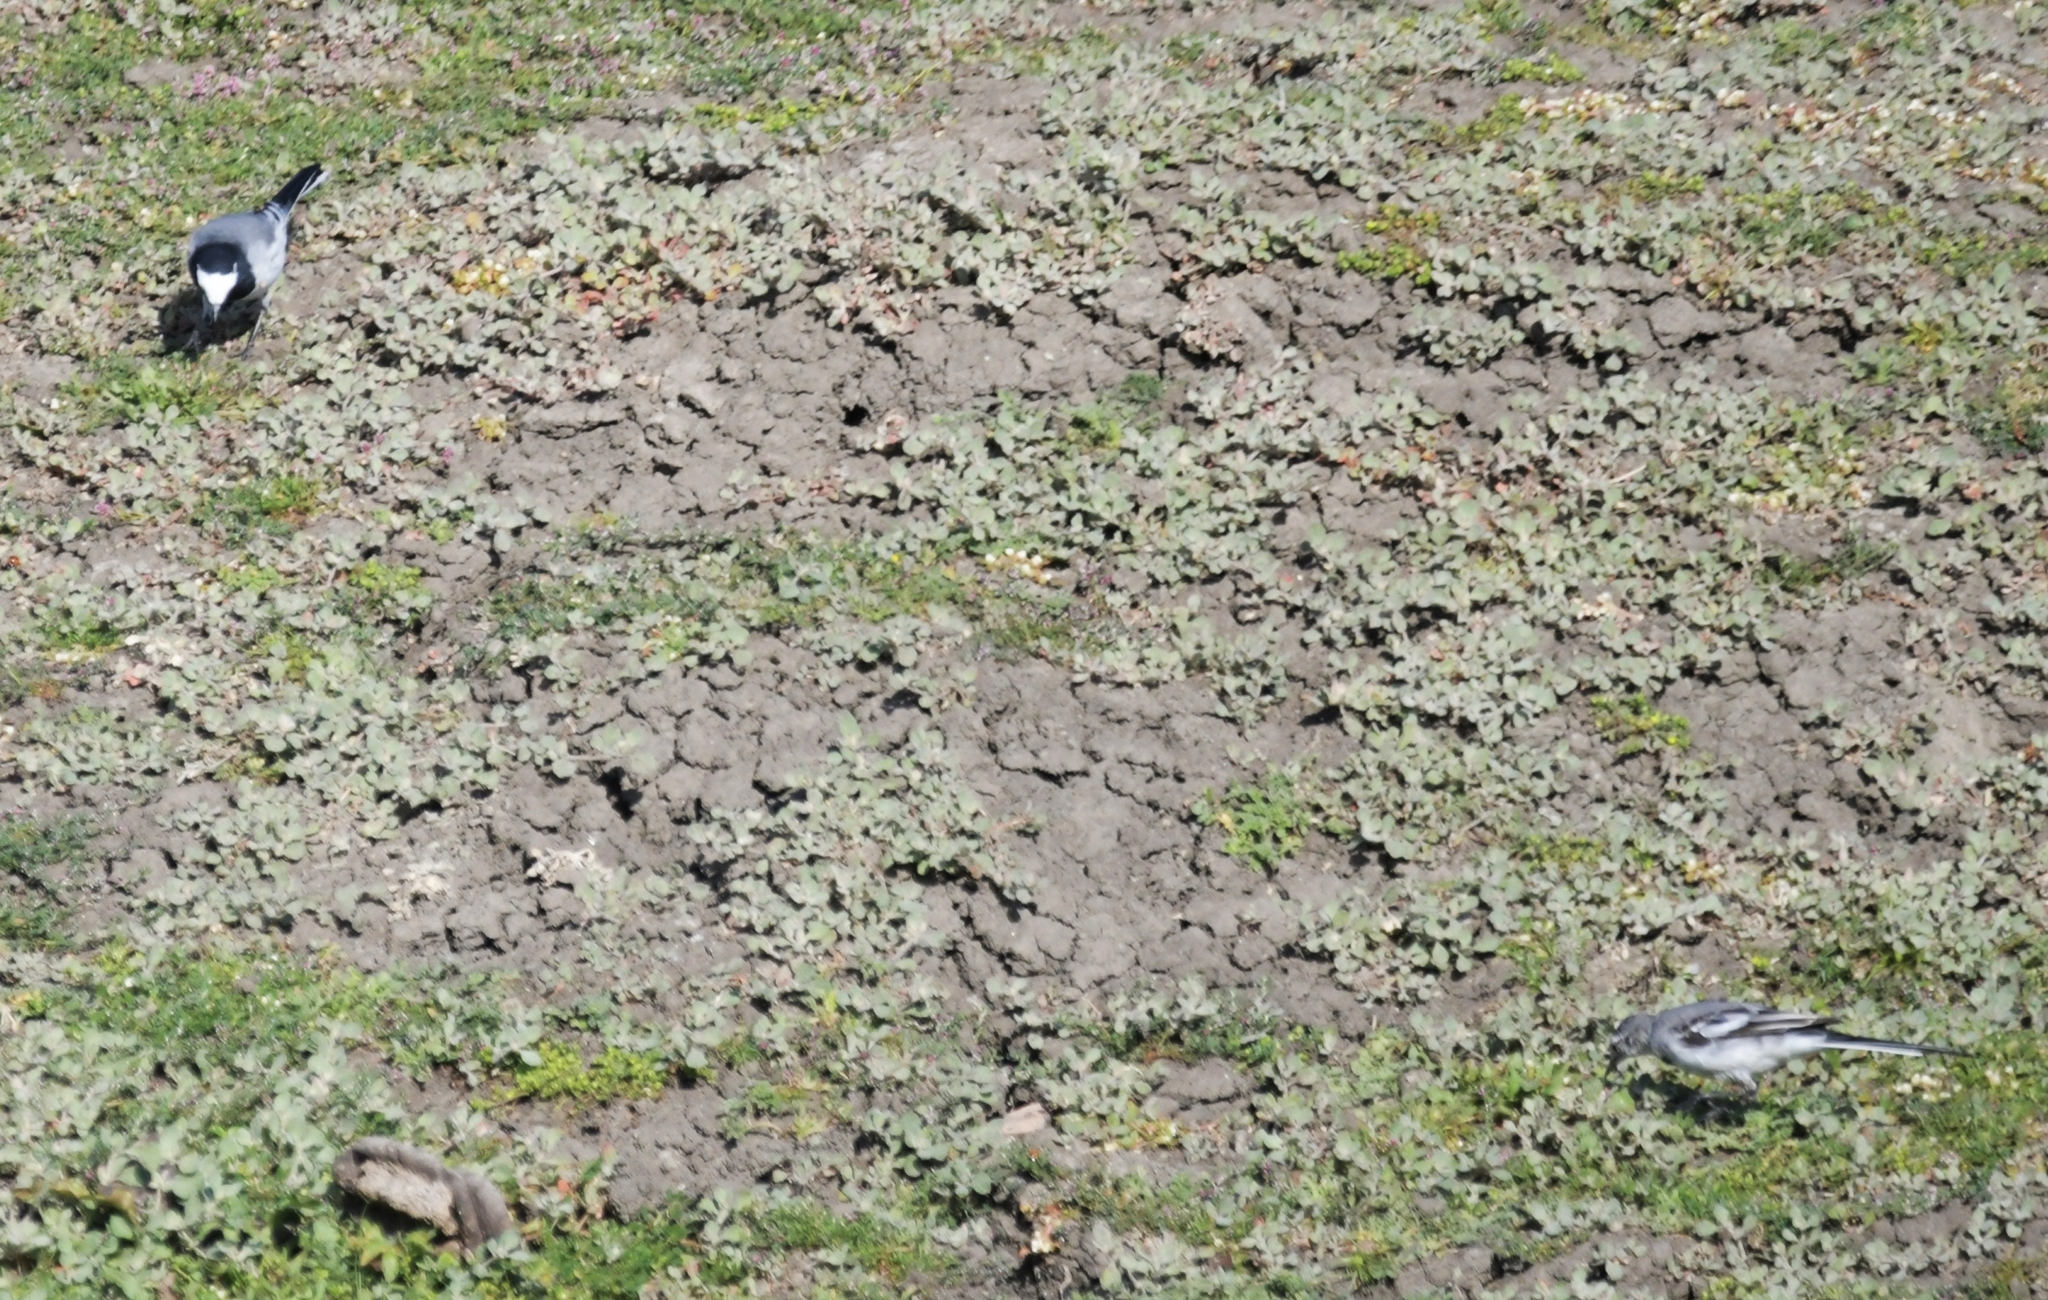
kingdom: Animalia
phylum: Chordata
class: Aves
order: Passeriformes
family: Motacillidae
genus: Motacilla
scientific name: Motacilla alba
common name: White wagtail
